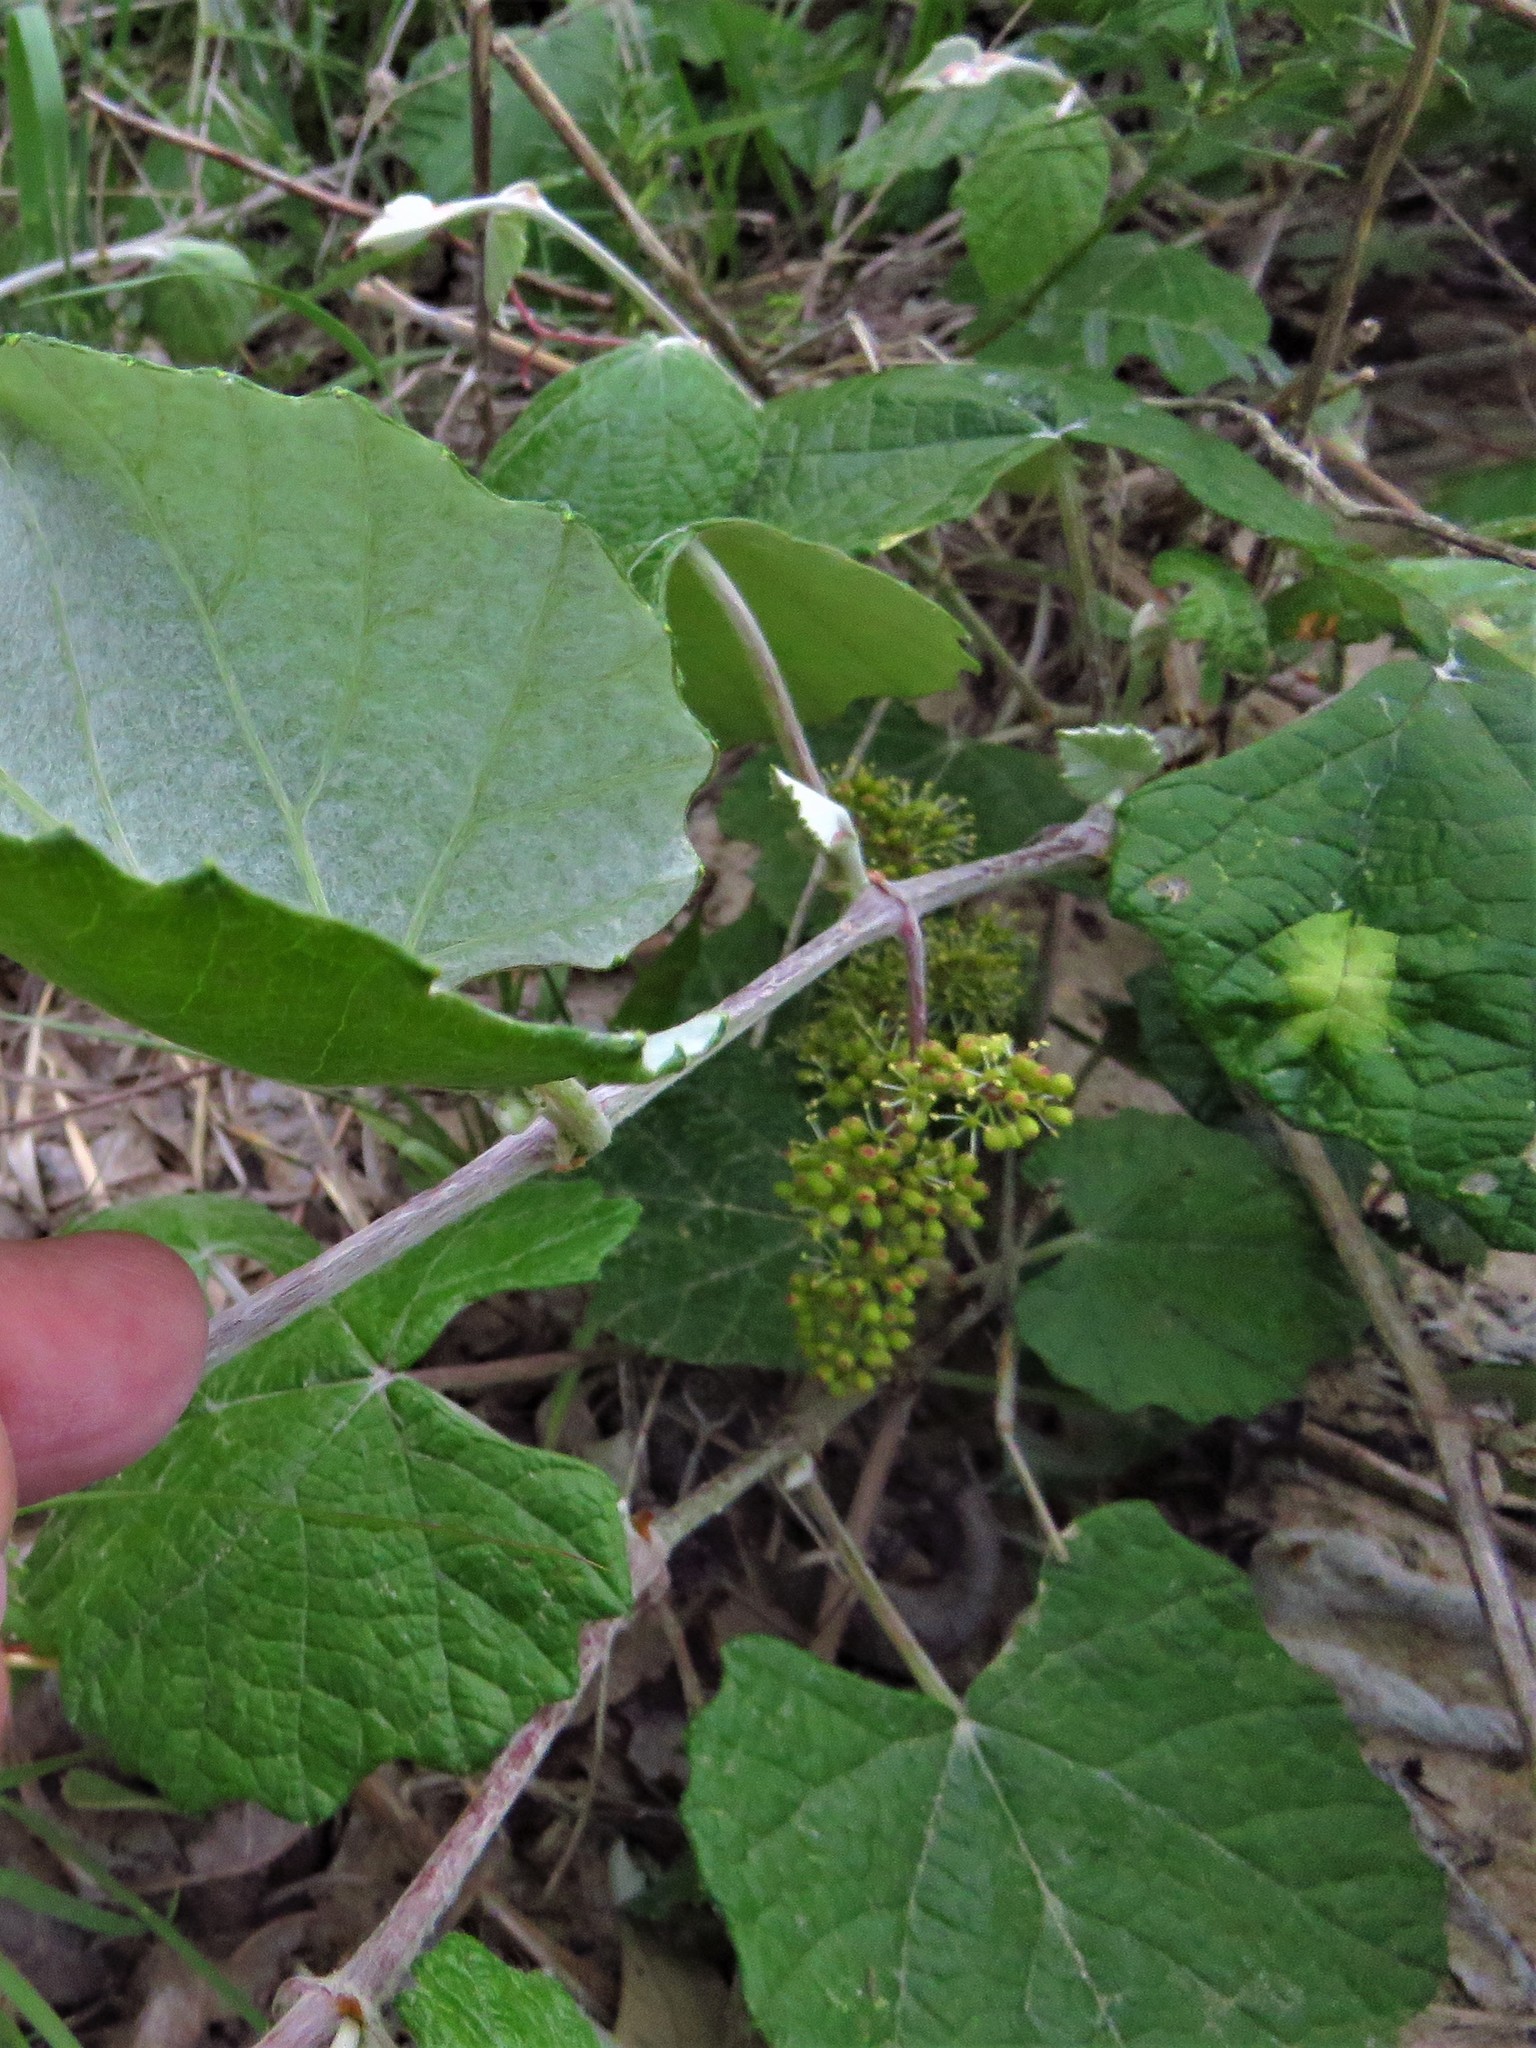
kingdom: Plantae
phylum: Tracheophyta
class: Magnoliopsida
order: Vitales
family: Vitaceae
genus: Vitis
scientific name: Vitis mustangensis
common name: Mustang grape
